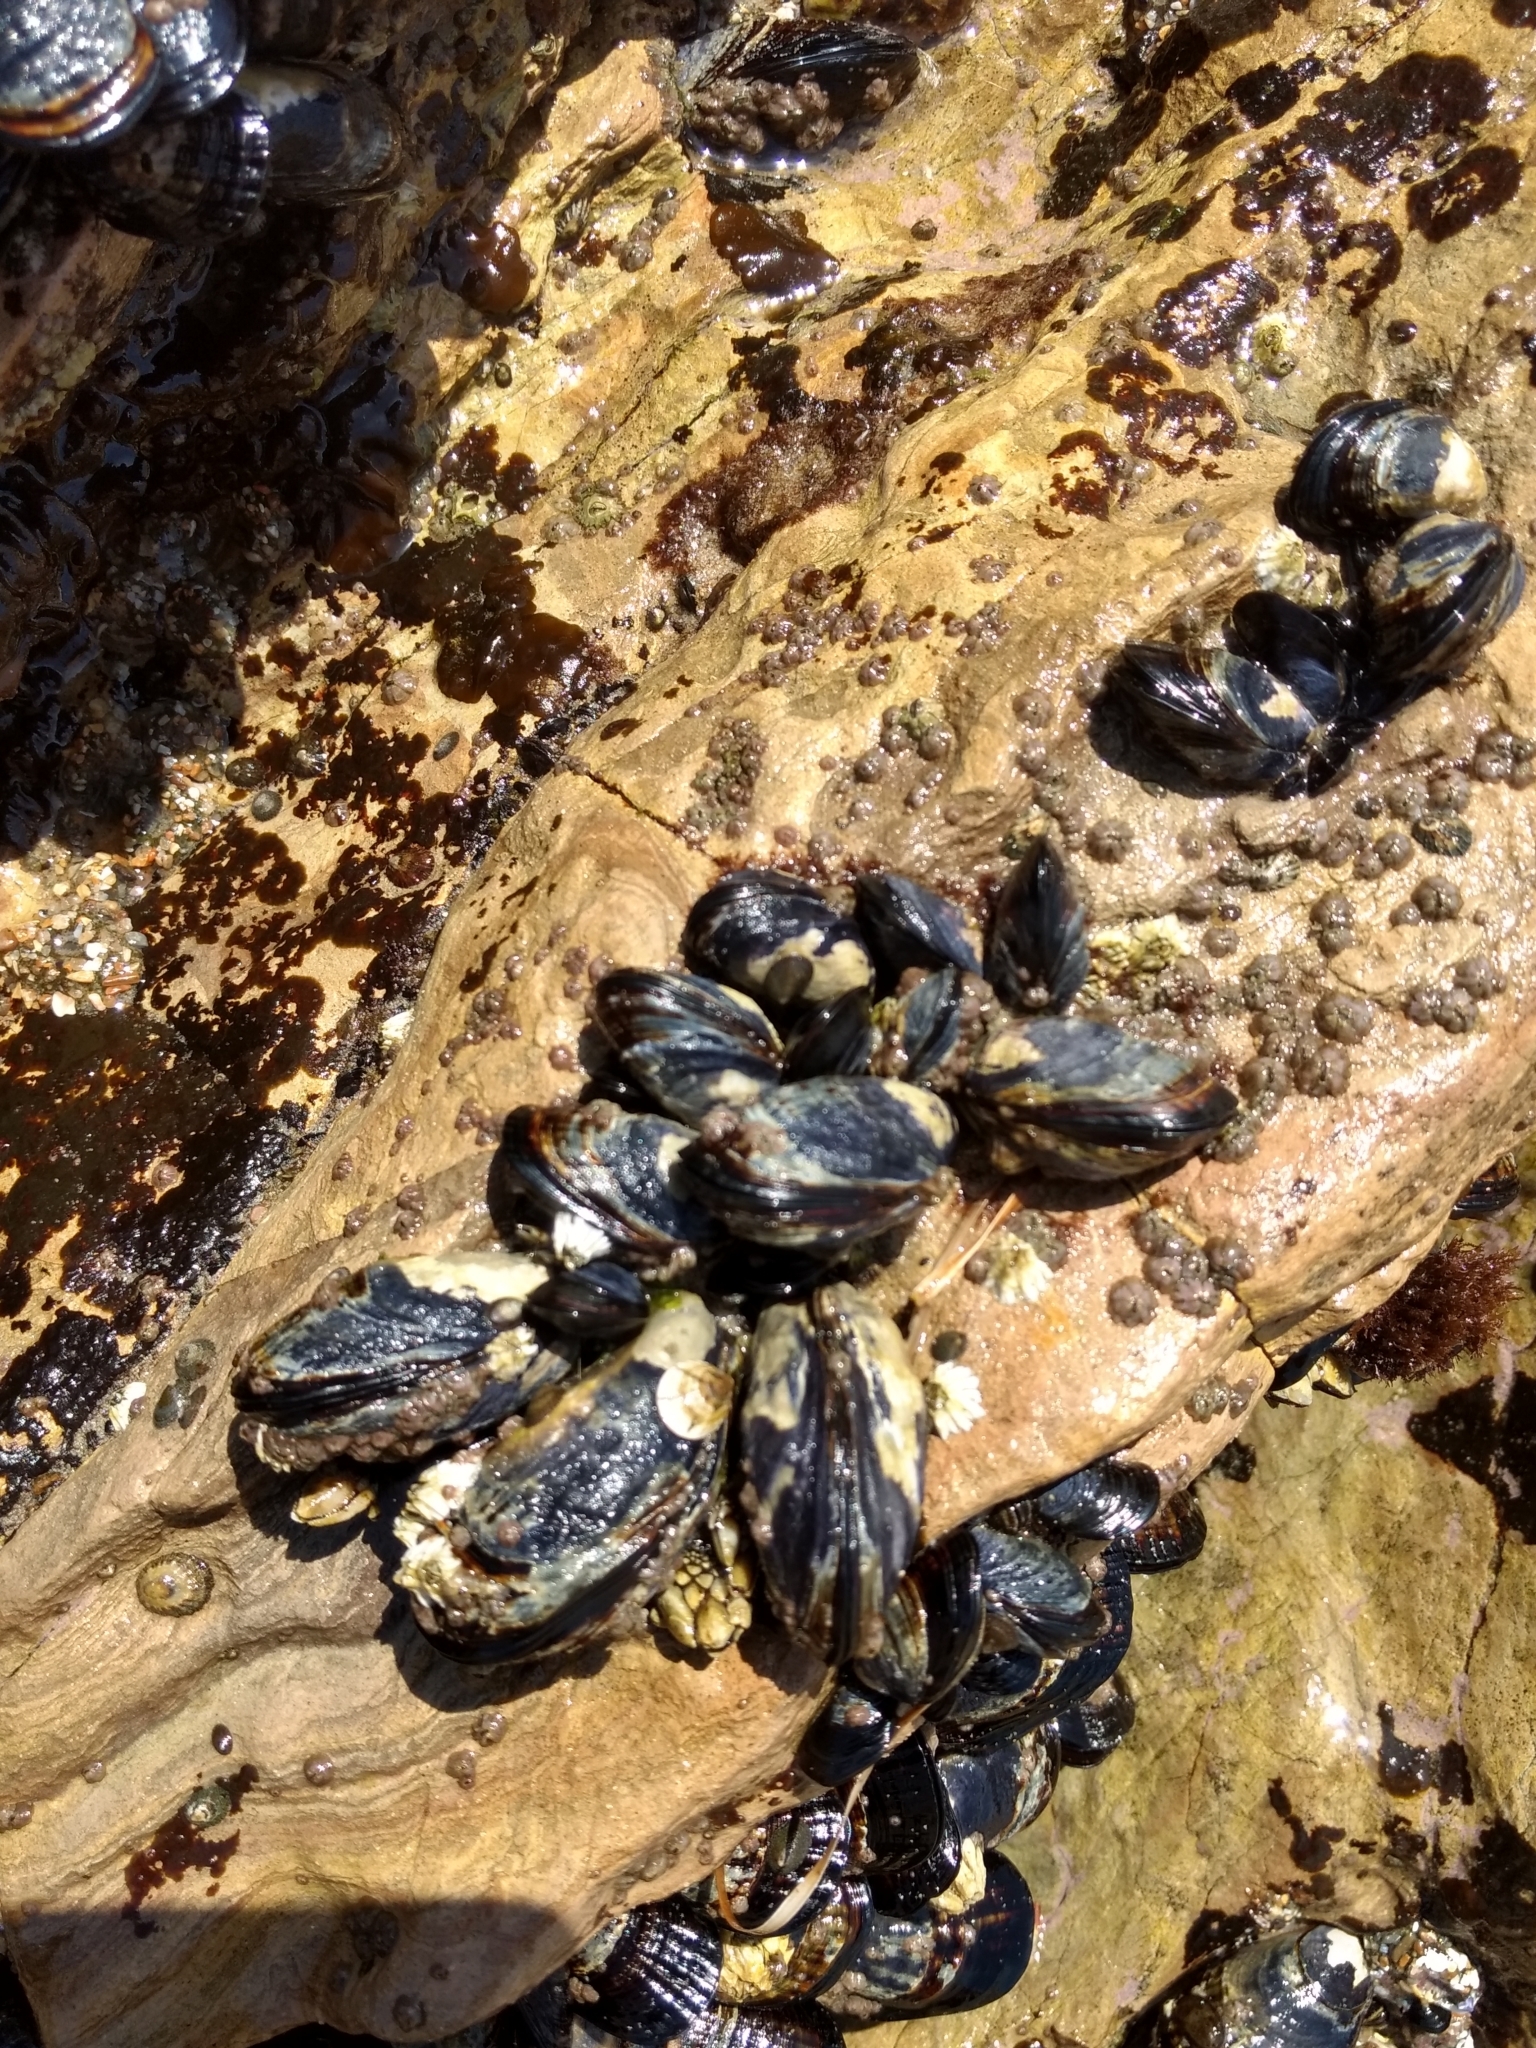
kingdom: Animalia
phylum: Mollusca
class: Bivalvia
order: Mytilida
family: Mytilidae
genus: Mytilus
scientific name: Mytilus californianus
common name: California mussel
